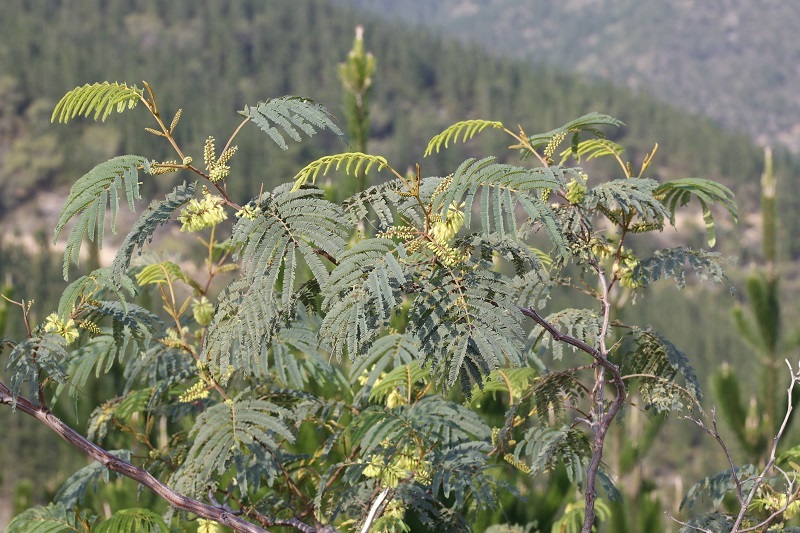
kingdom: Plantae
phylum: Tracheophyta
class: Magnoliopsida
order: Fabales
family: Fabaceae
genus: Paraserianthes
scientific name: Paraserianthes lophantha
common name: Plume albizia
